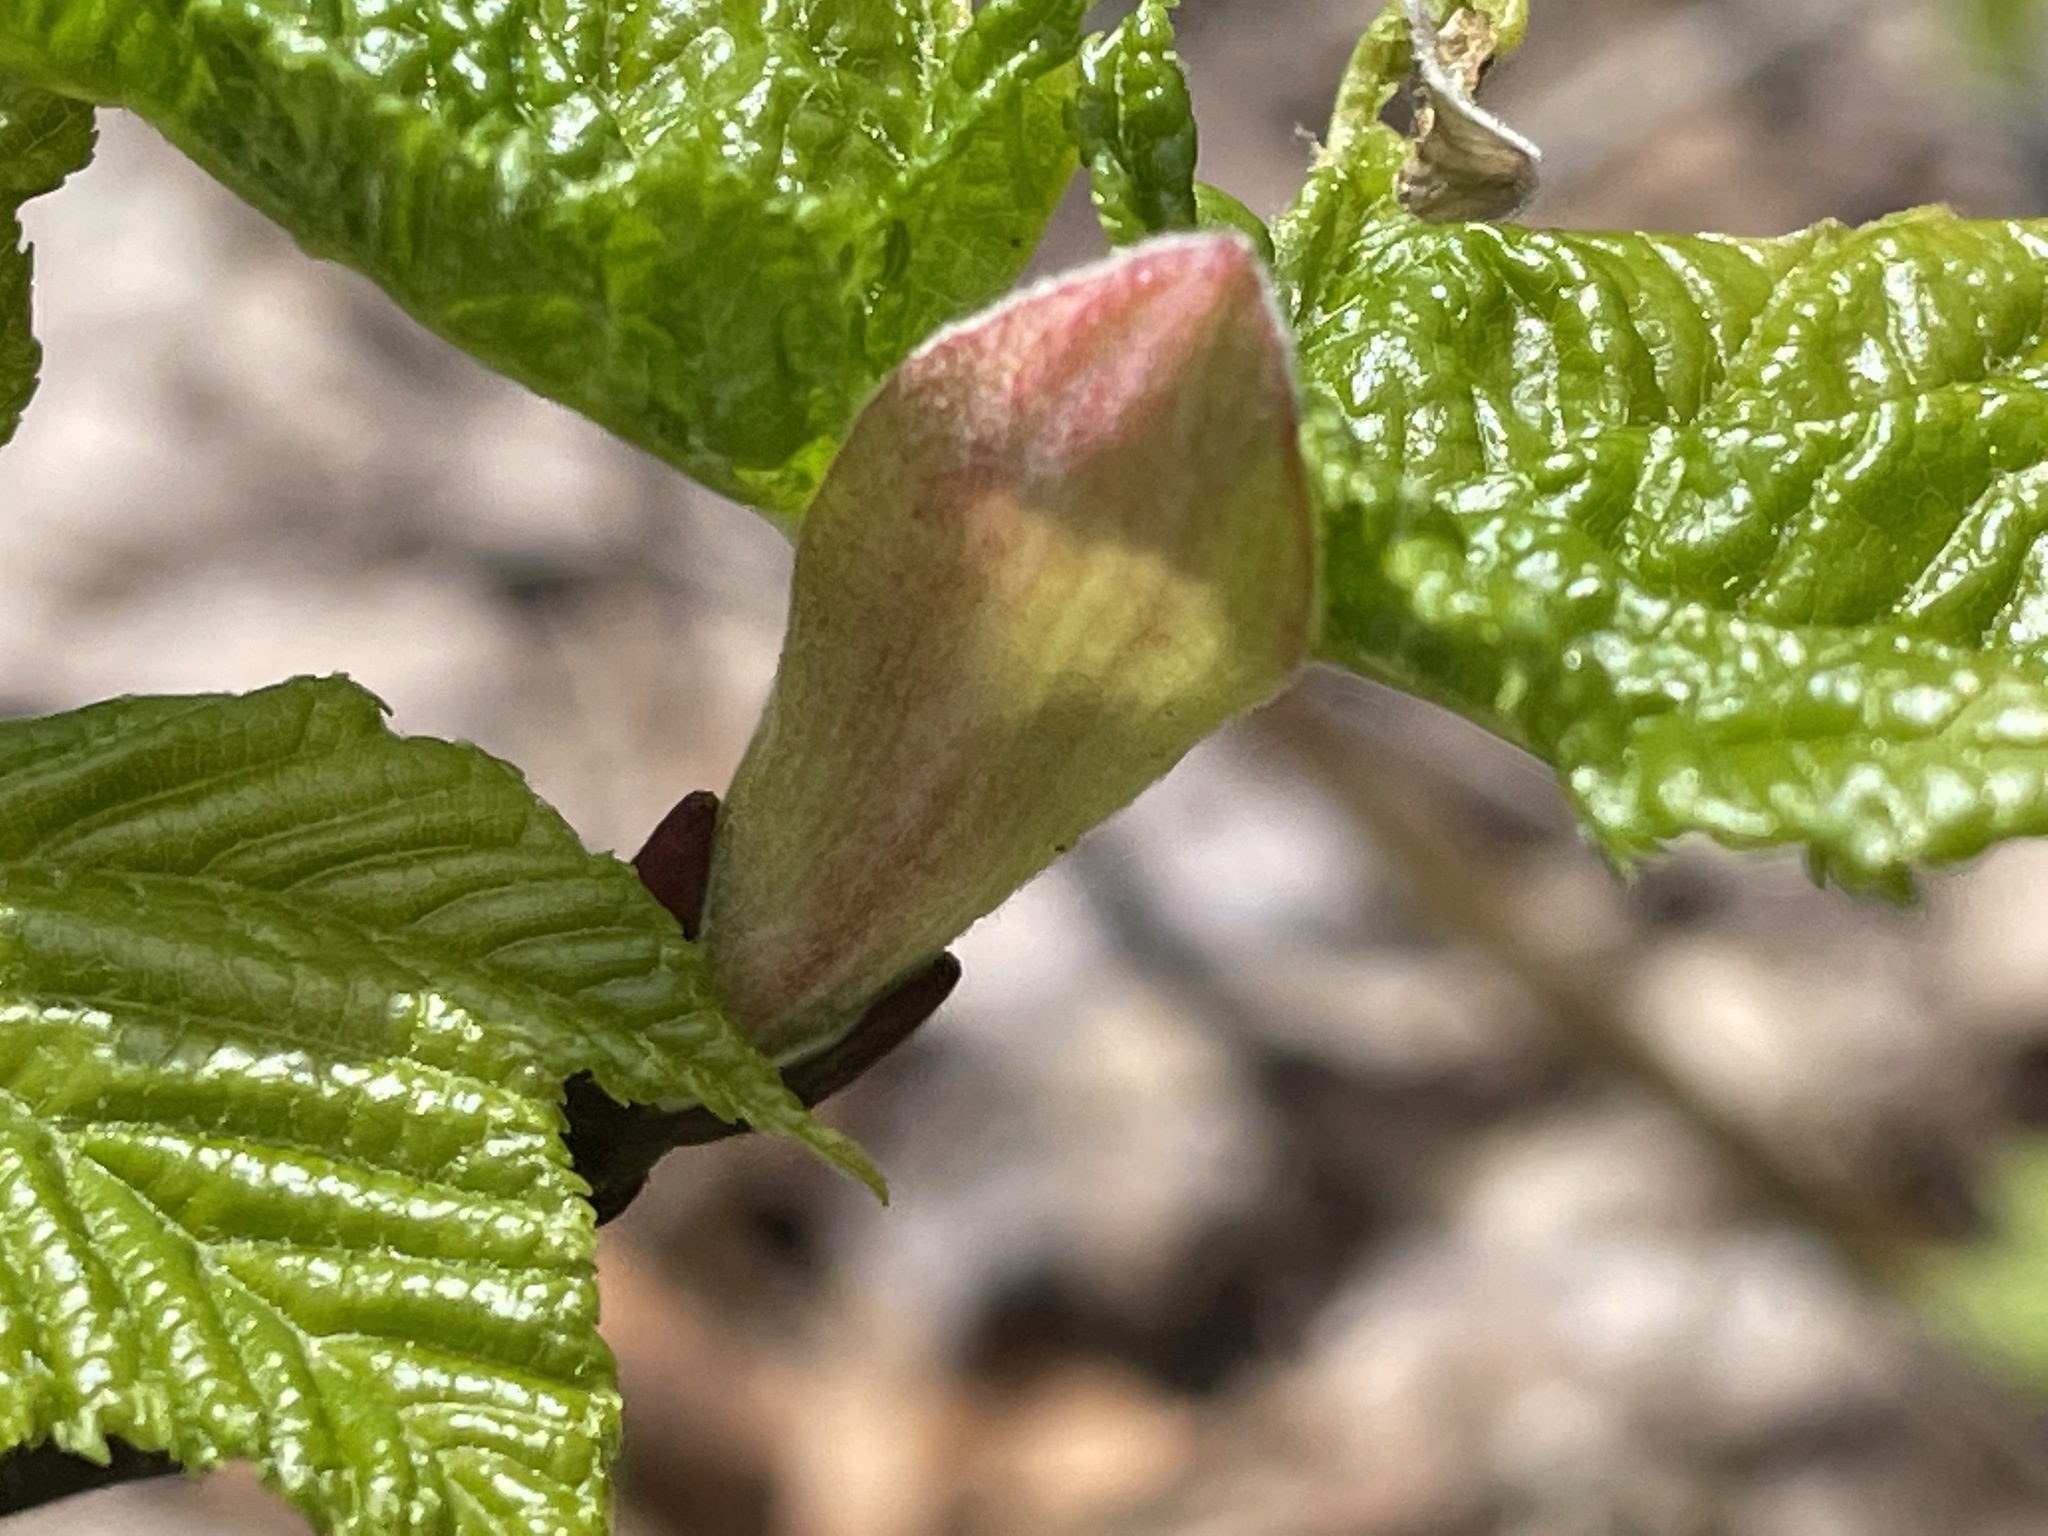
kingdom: Plantae
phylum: Tracheophyta
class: Magnoliopsida
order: Sapindales
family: Sapindaceae
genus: Acer
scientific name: Acer pensylvanicum
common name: Moosewood
